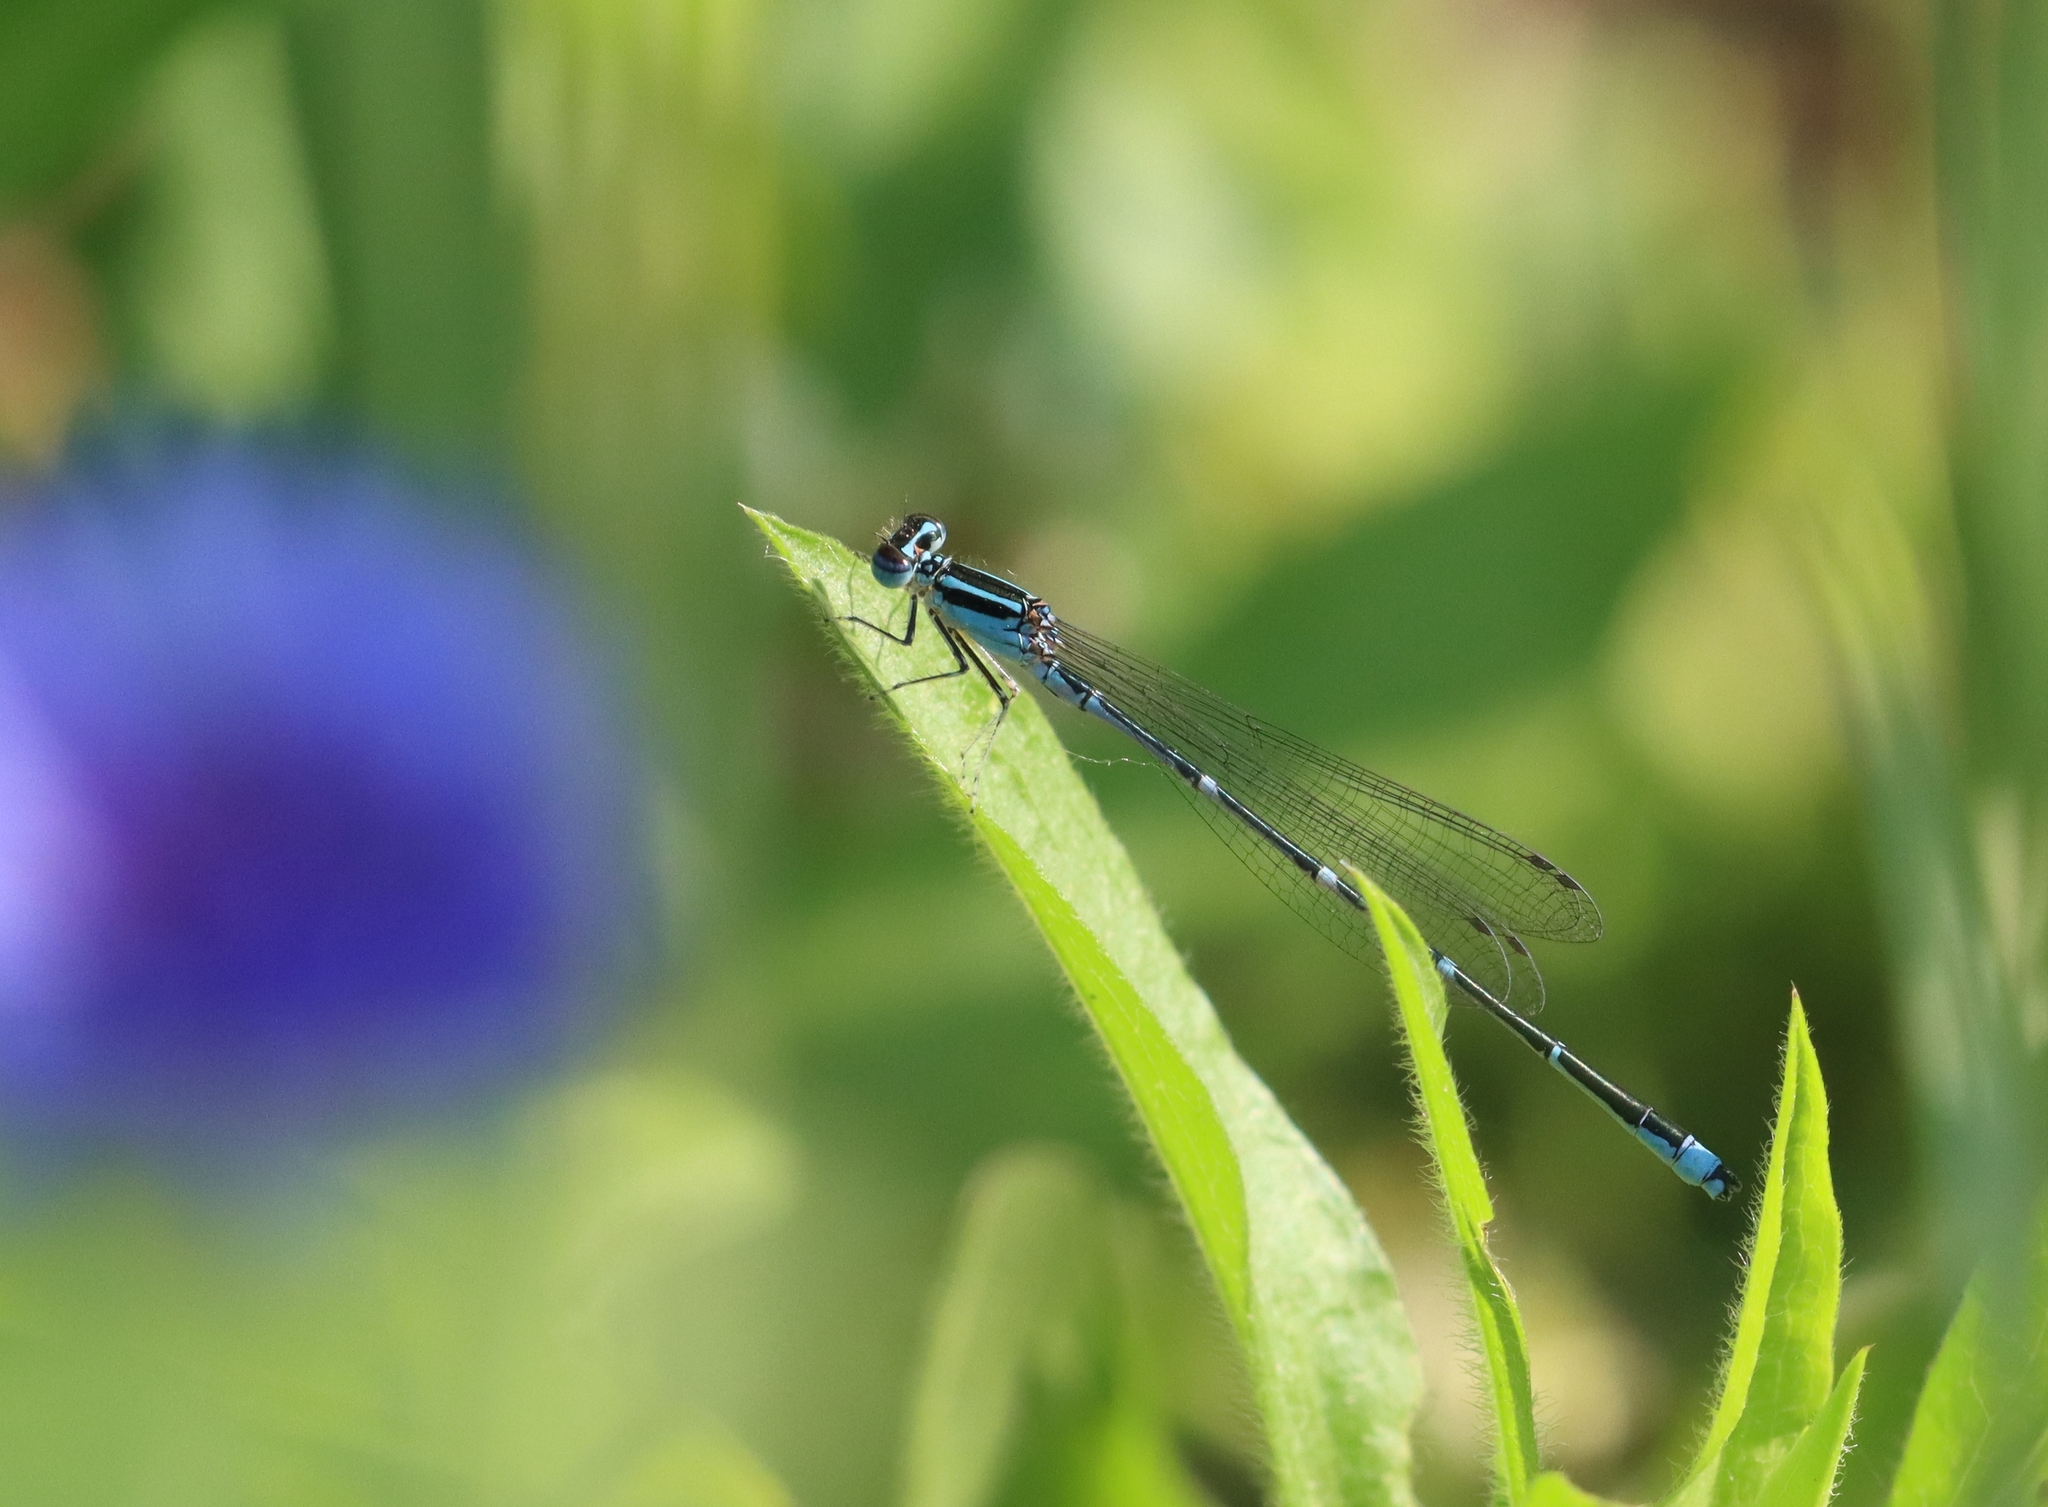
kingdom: Animalia
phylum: Arthropoda
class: Insecta
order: Odonata
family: Coenagrionidae
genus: Enallagma
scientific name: Enallagma exsulans
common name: Stream bluet
